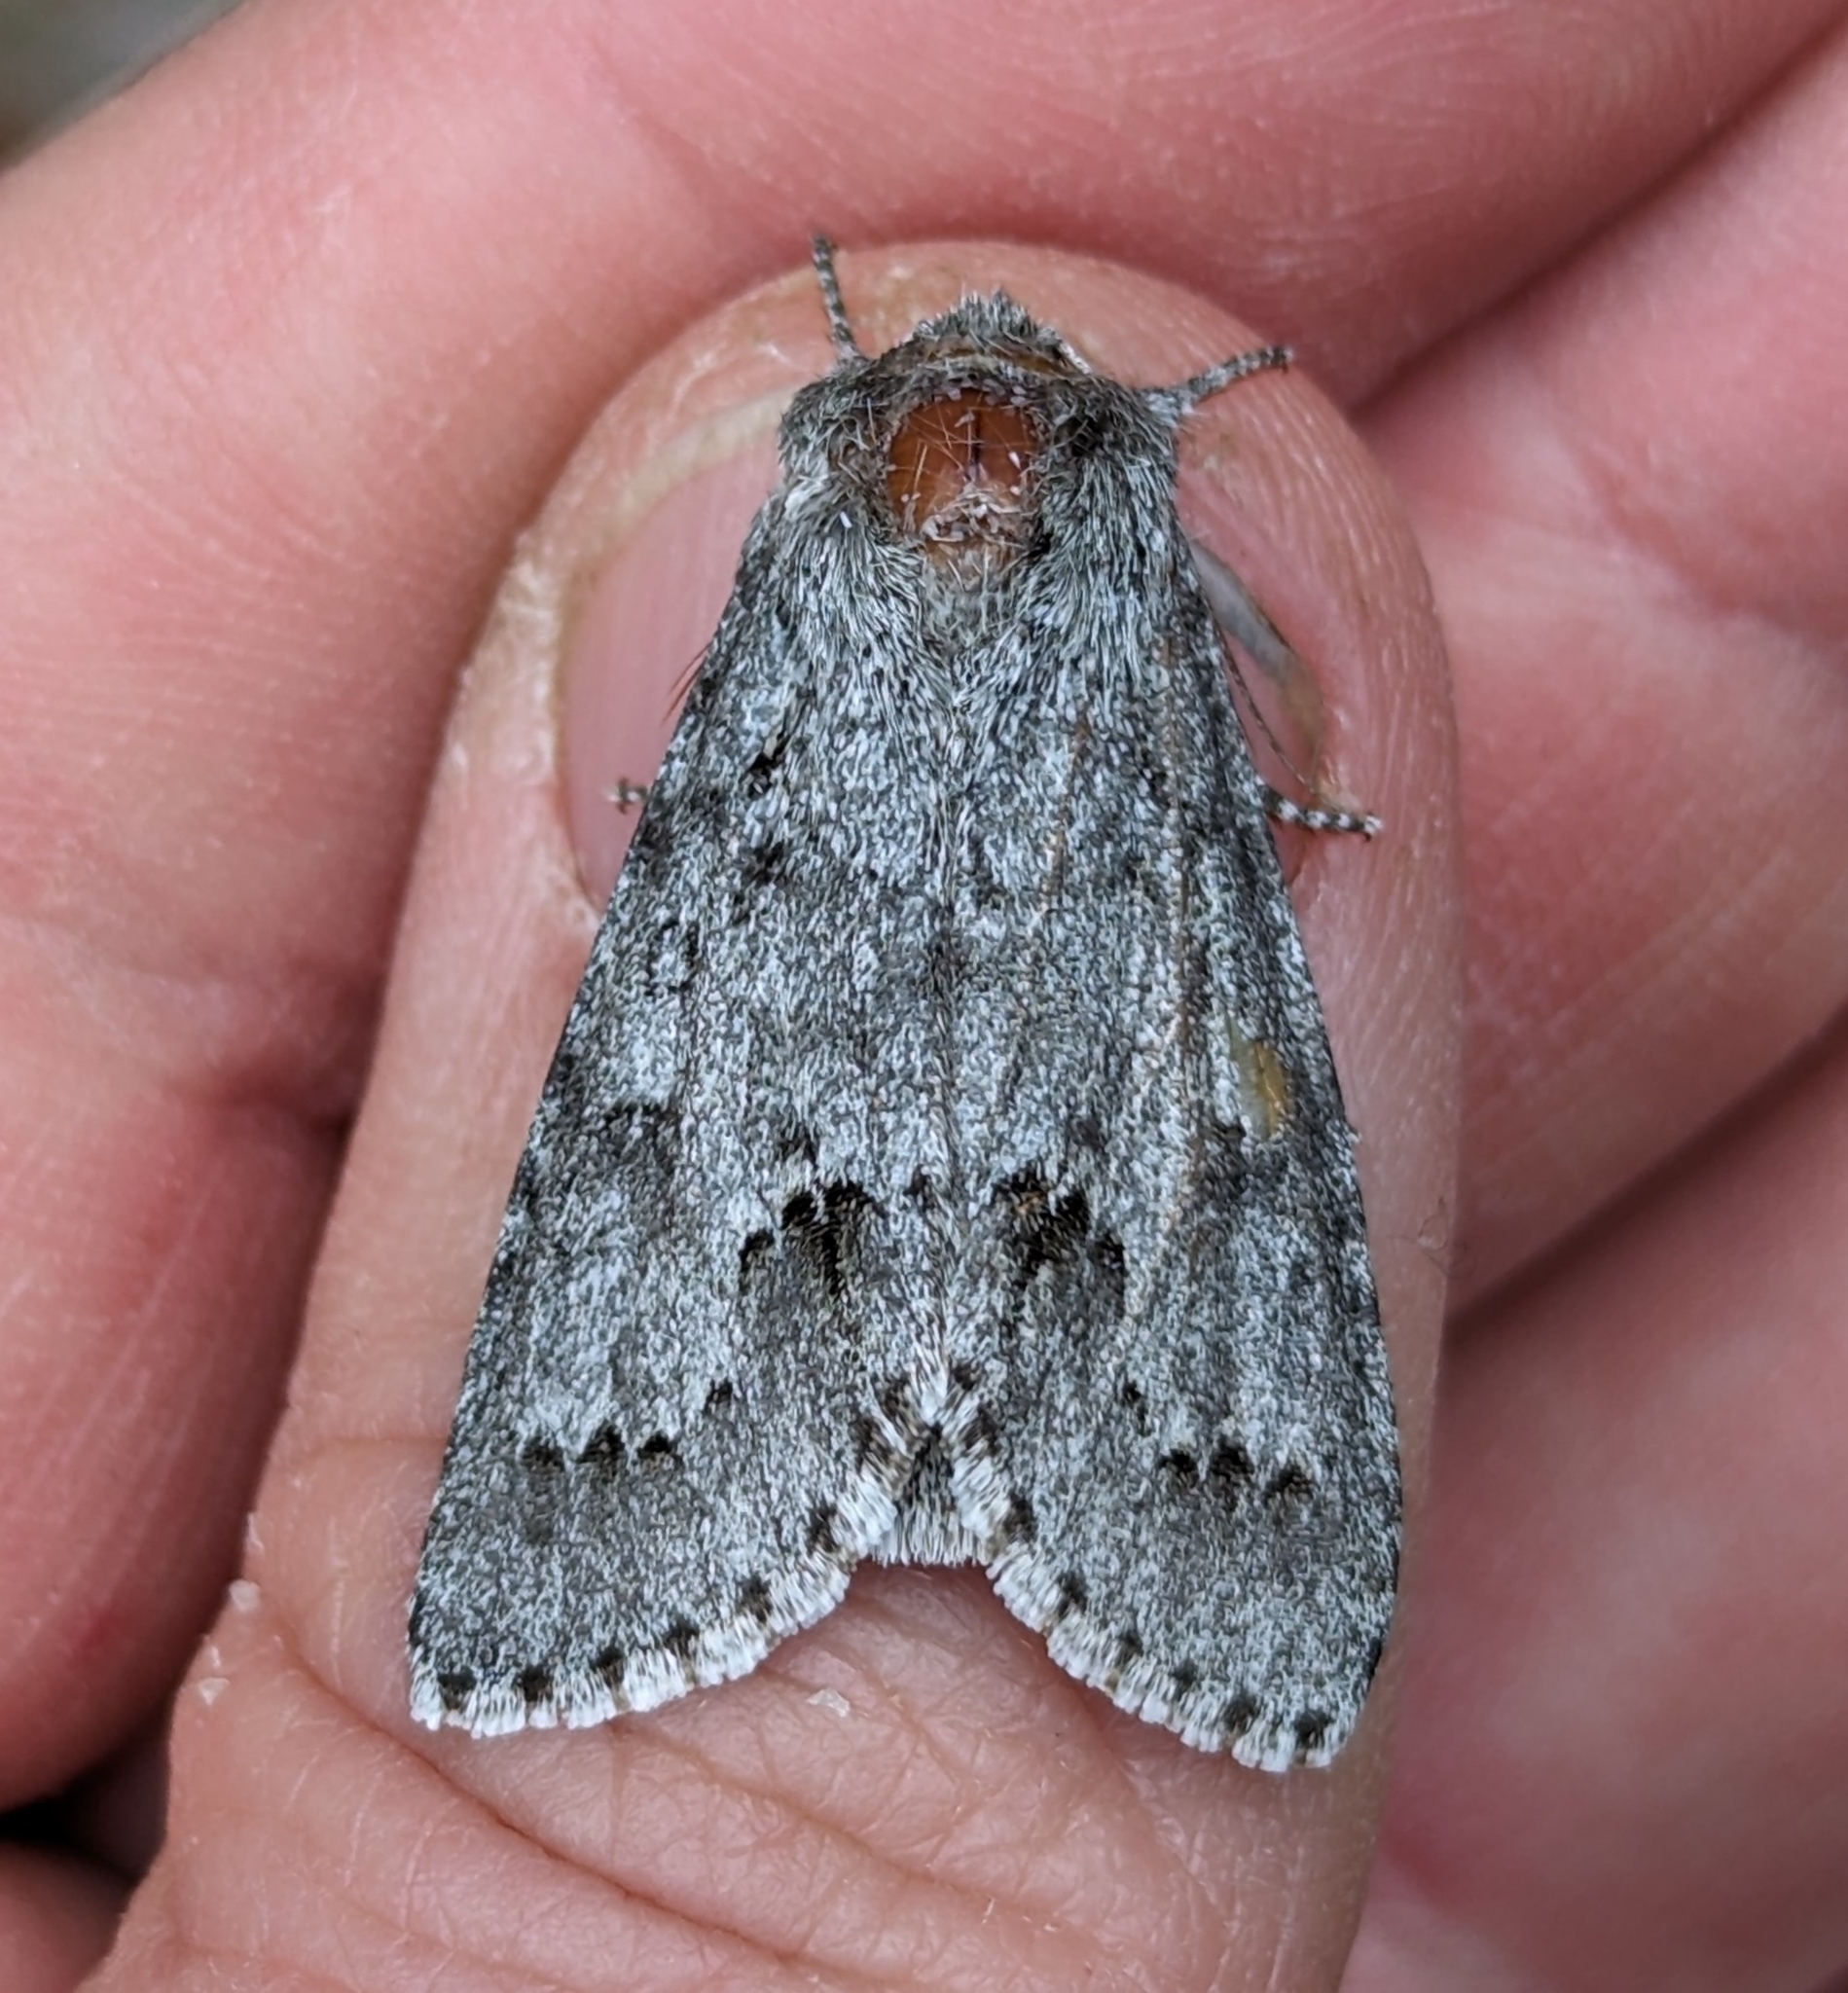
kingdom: Animalia
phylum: Arthropoda
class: Insecta
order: Lepidoptera
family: Noctuidae
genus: Acronicta
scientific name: Acronicta insita
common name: Large gray dagger
